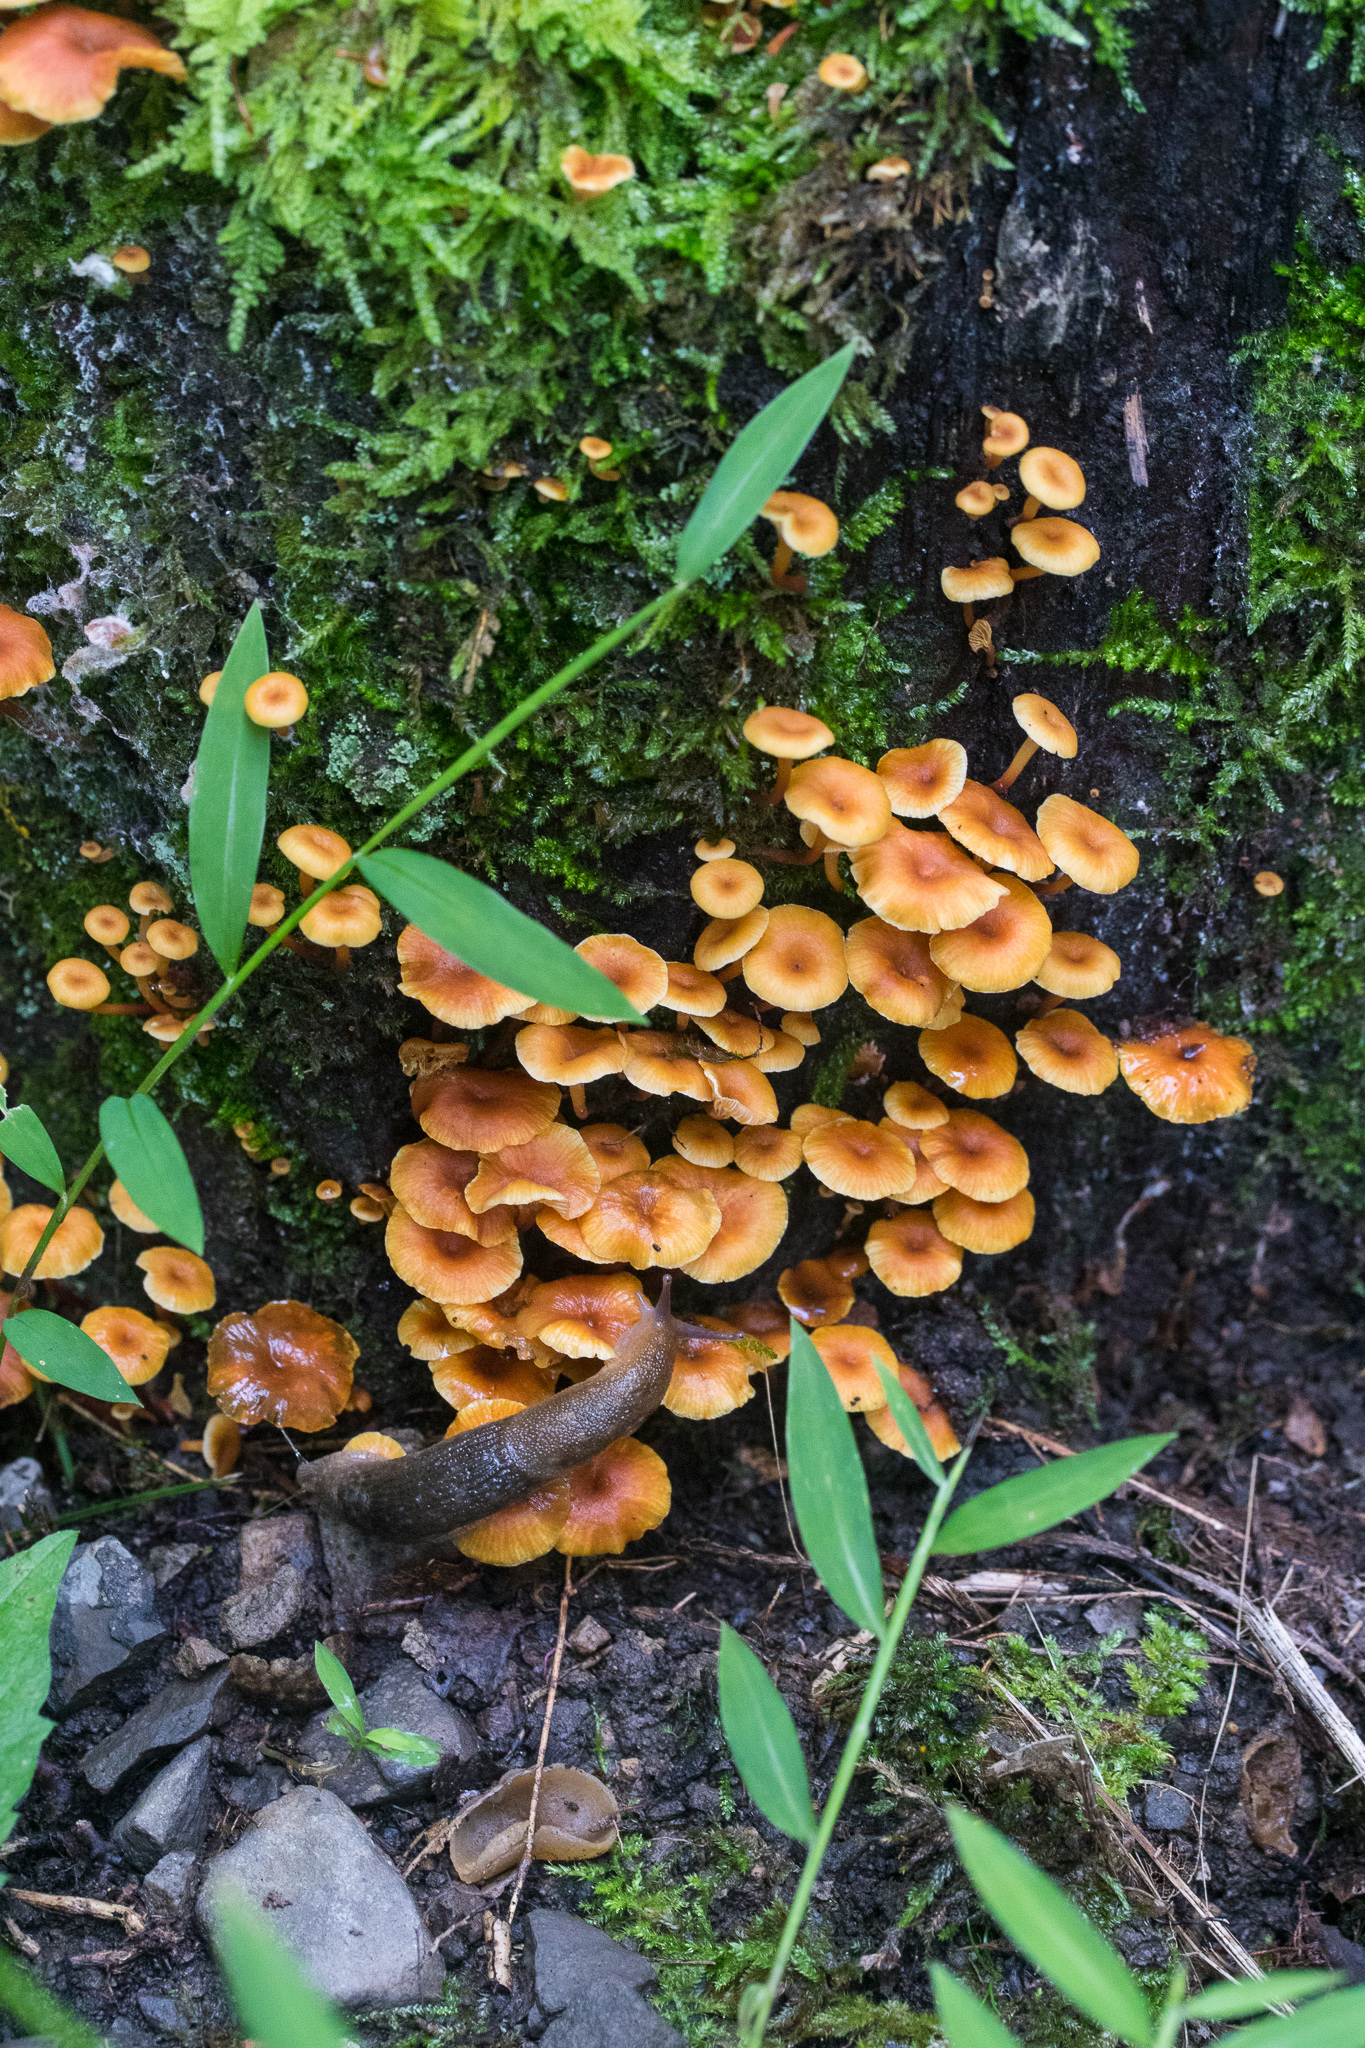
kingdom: Fungi
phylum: Basidiomycota
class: Agaricomycetes
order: Agaricales
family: Mycenaceae
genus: Xeromphalina
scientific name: Xeromphalina kauffmanii
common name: Cross-veined troop mushroom
